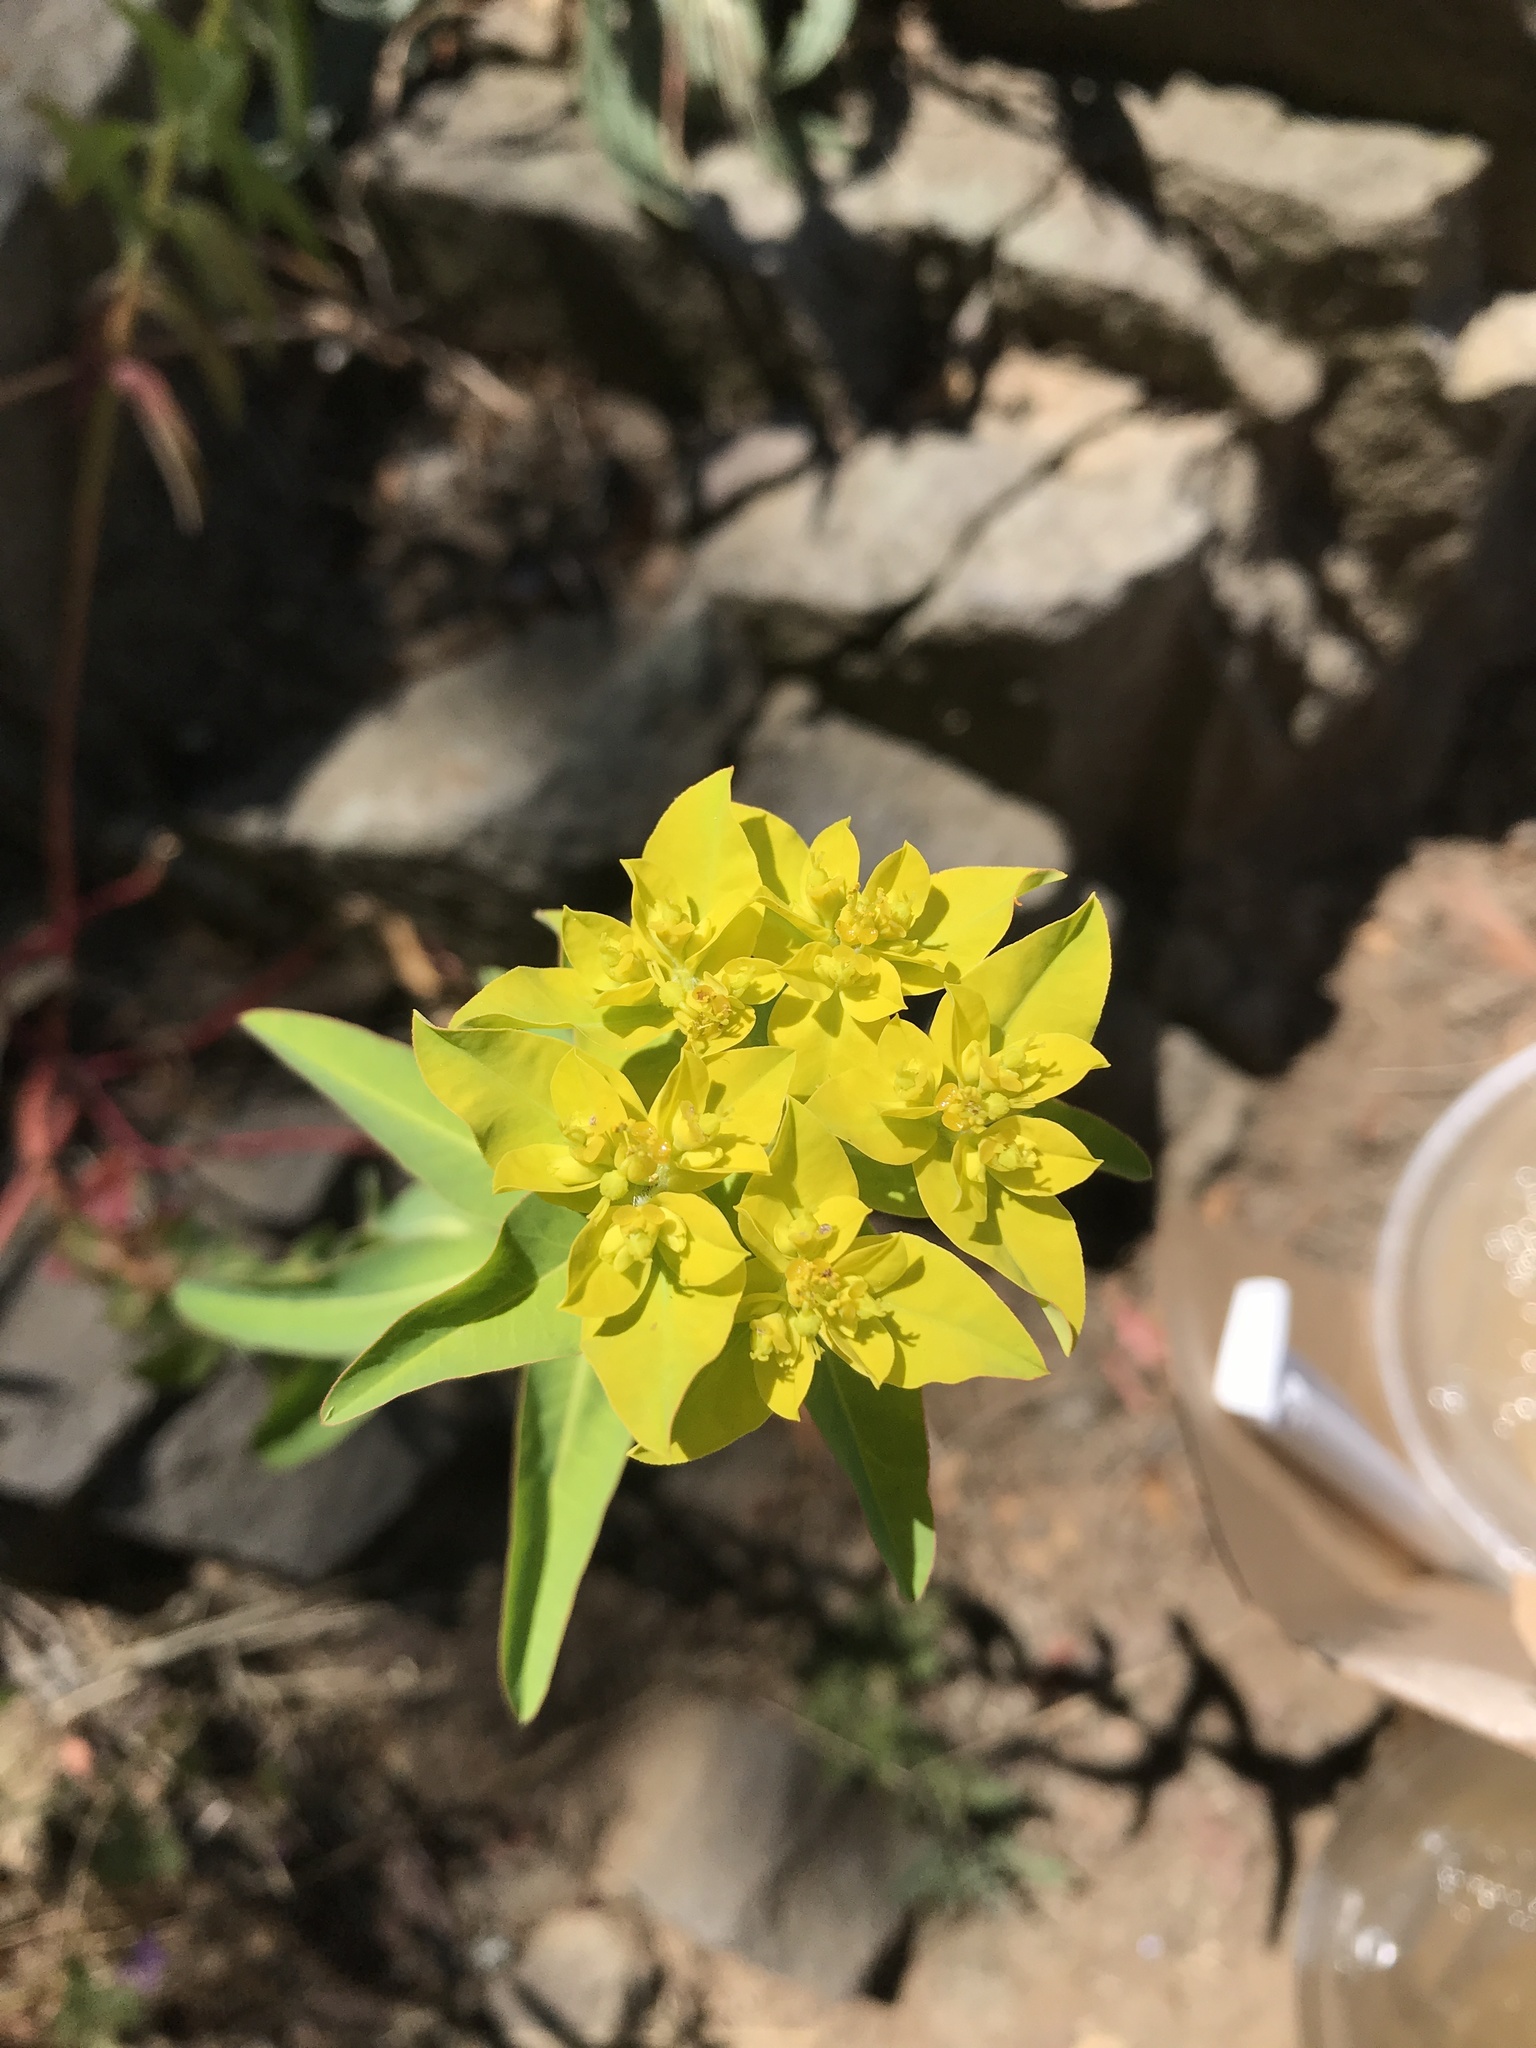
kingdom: Plantae
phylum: Tracheophyta
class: Magnoliopsida
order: Malpighiales
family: Euphorbiaceae
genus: Euphorbia
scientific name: Euphorbia oblongata
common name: Balkan spurge
